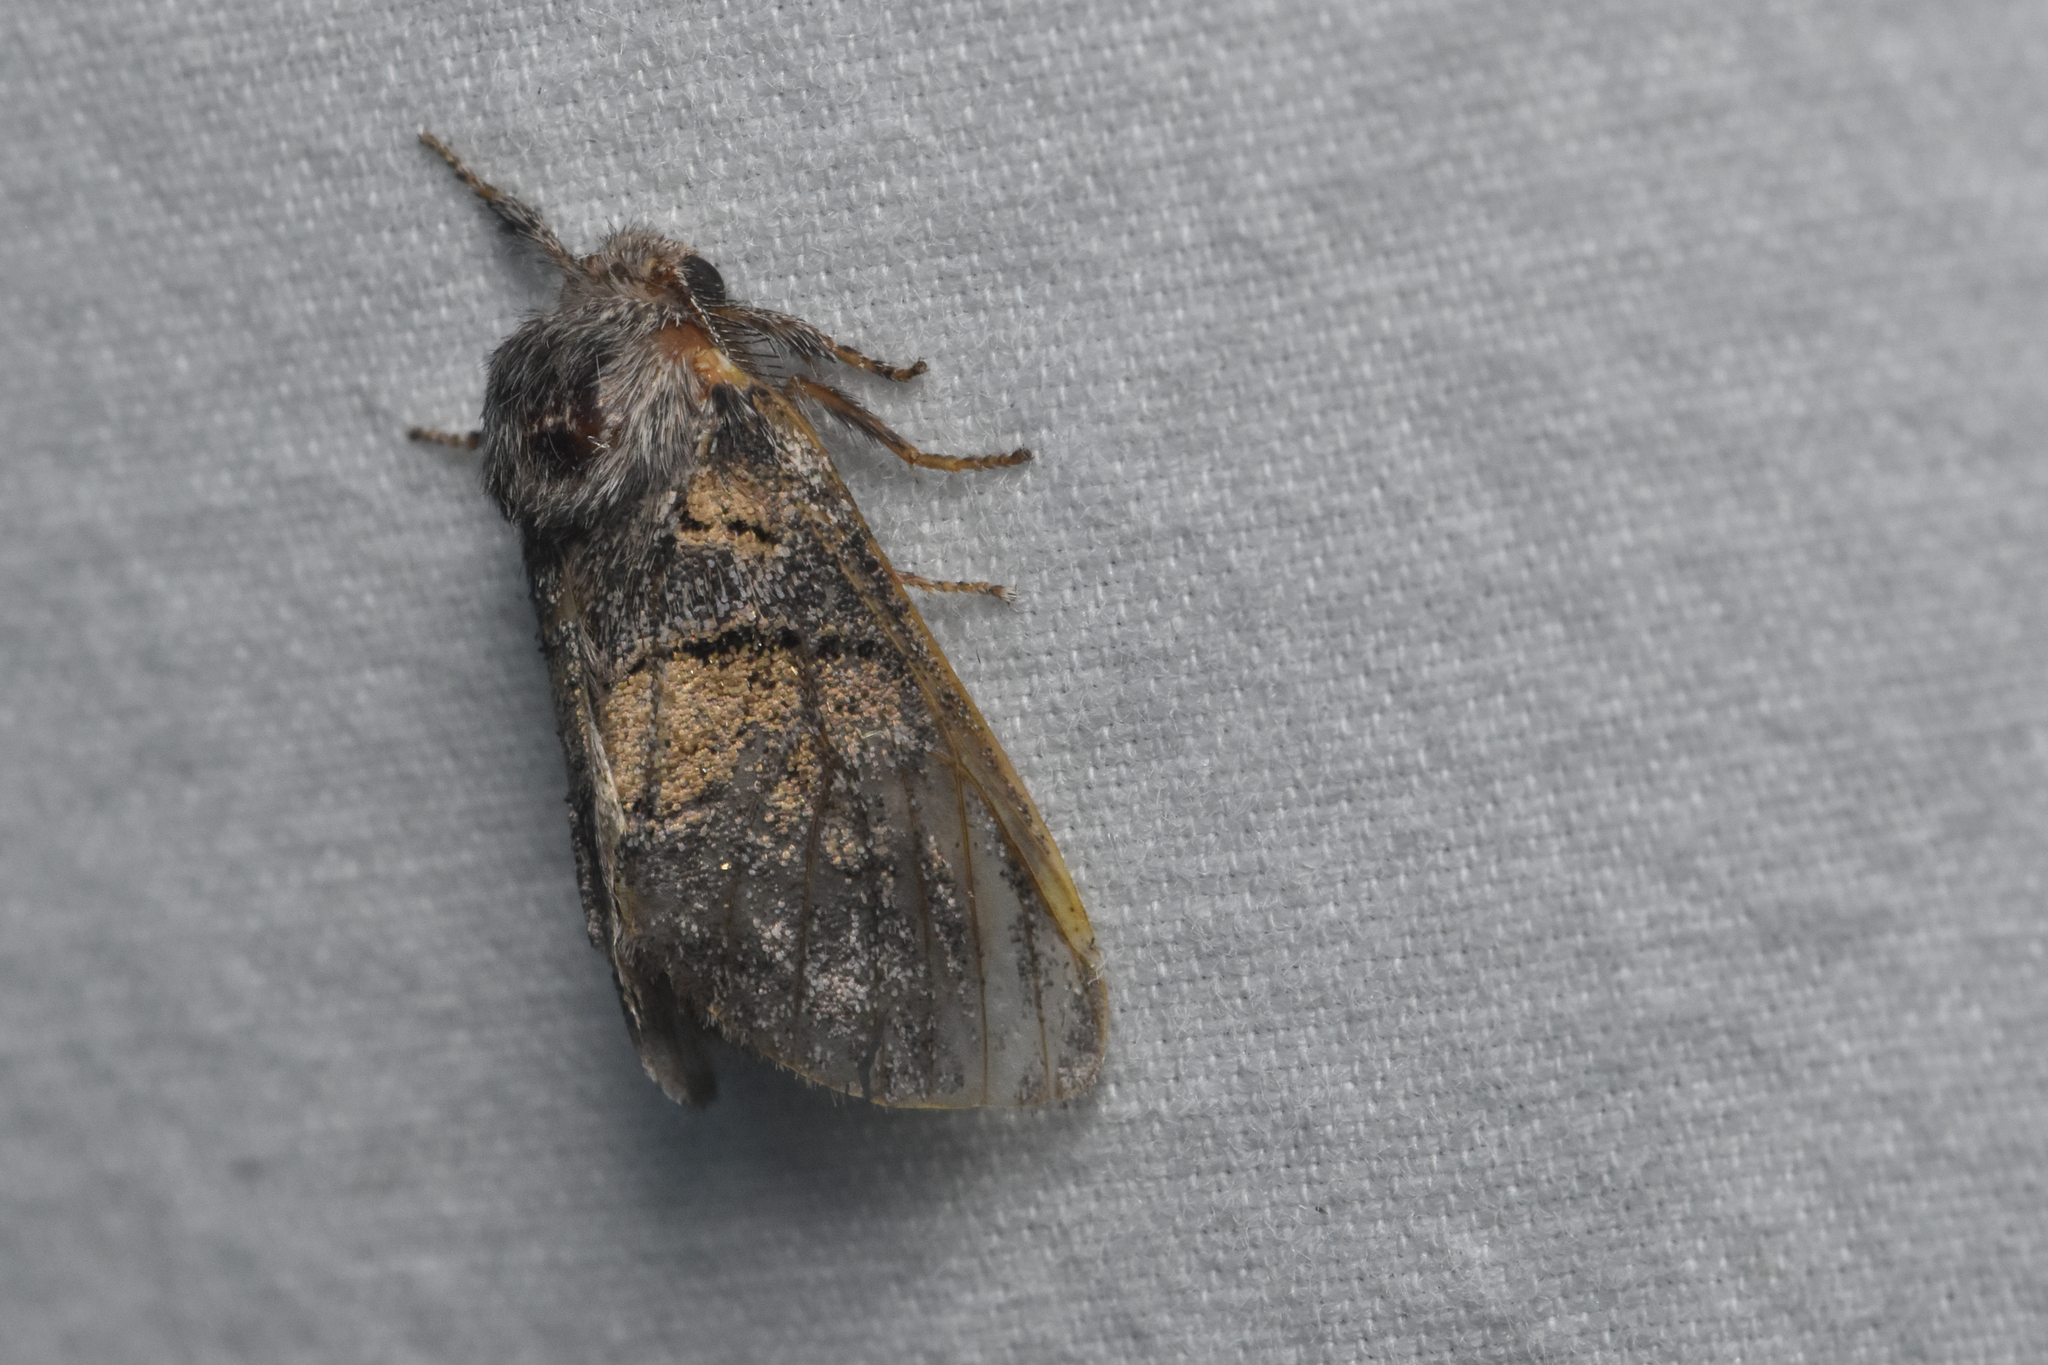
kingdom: Animalia
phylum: Arthropoda
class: Insecta
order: Lepidoptera
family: Notodontidae
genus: Gluphisia
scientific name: Gluphisia septentrionis
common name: Common gluphisia
